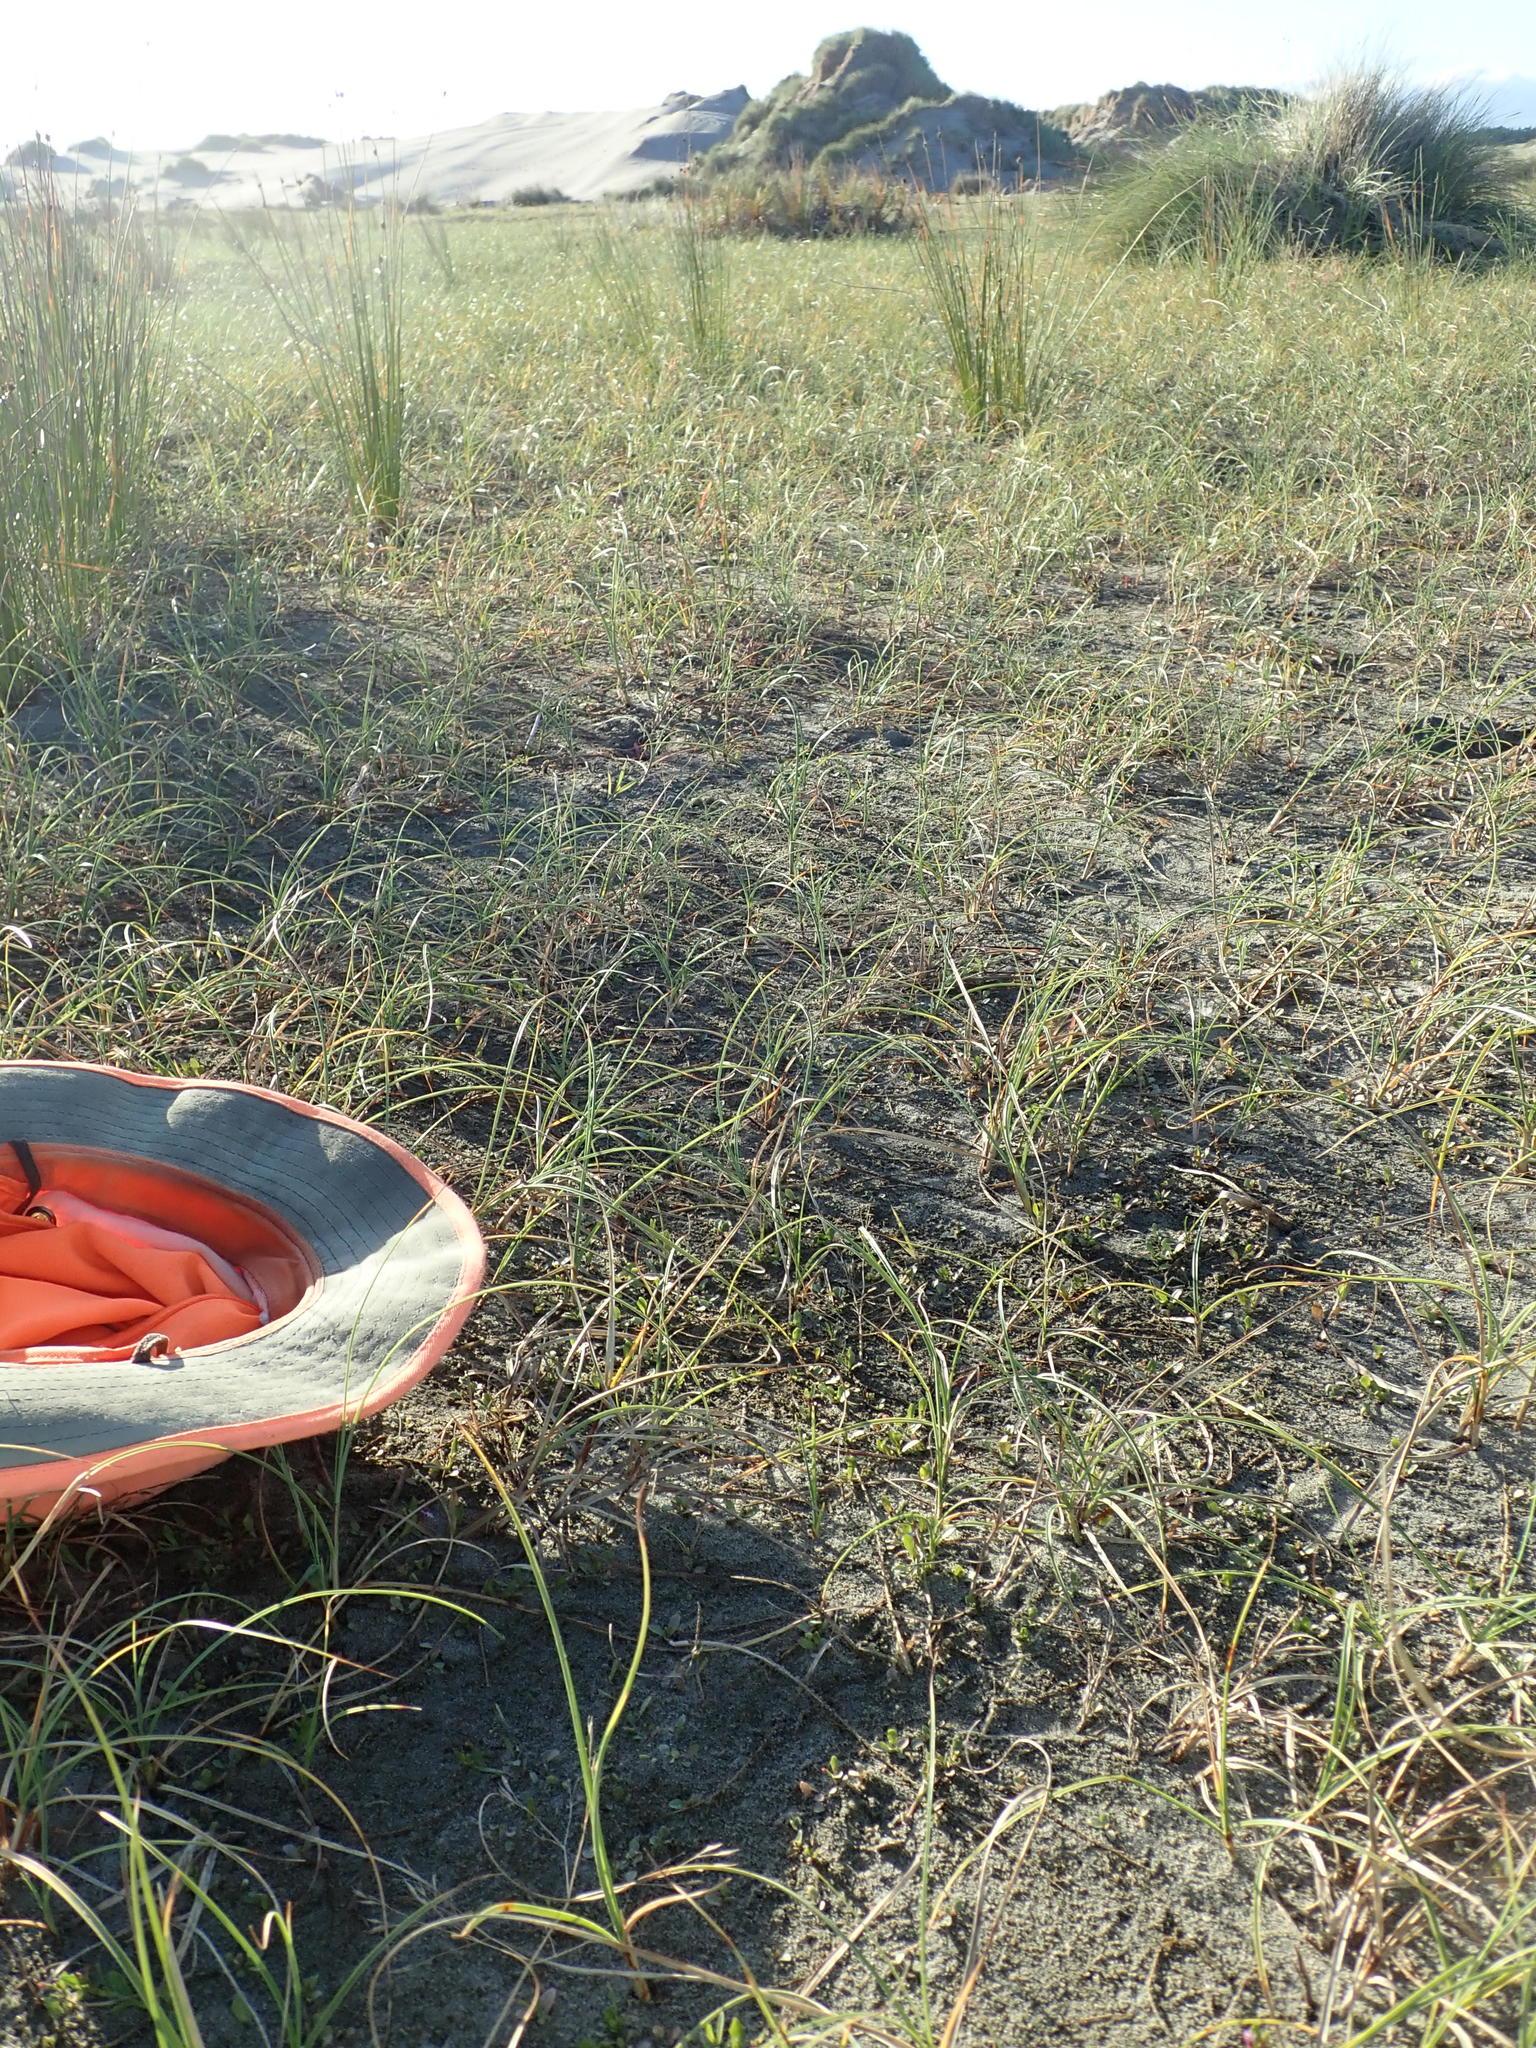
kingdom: Plantae
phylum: Tracheophyta
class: Magnoliopsida
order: Asterales
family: Campanulaceae
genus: Lobelia
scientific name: Lobelia anceps
